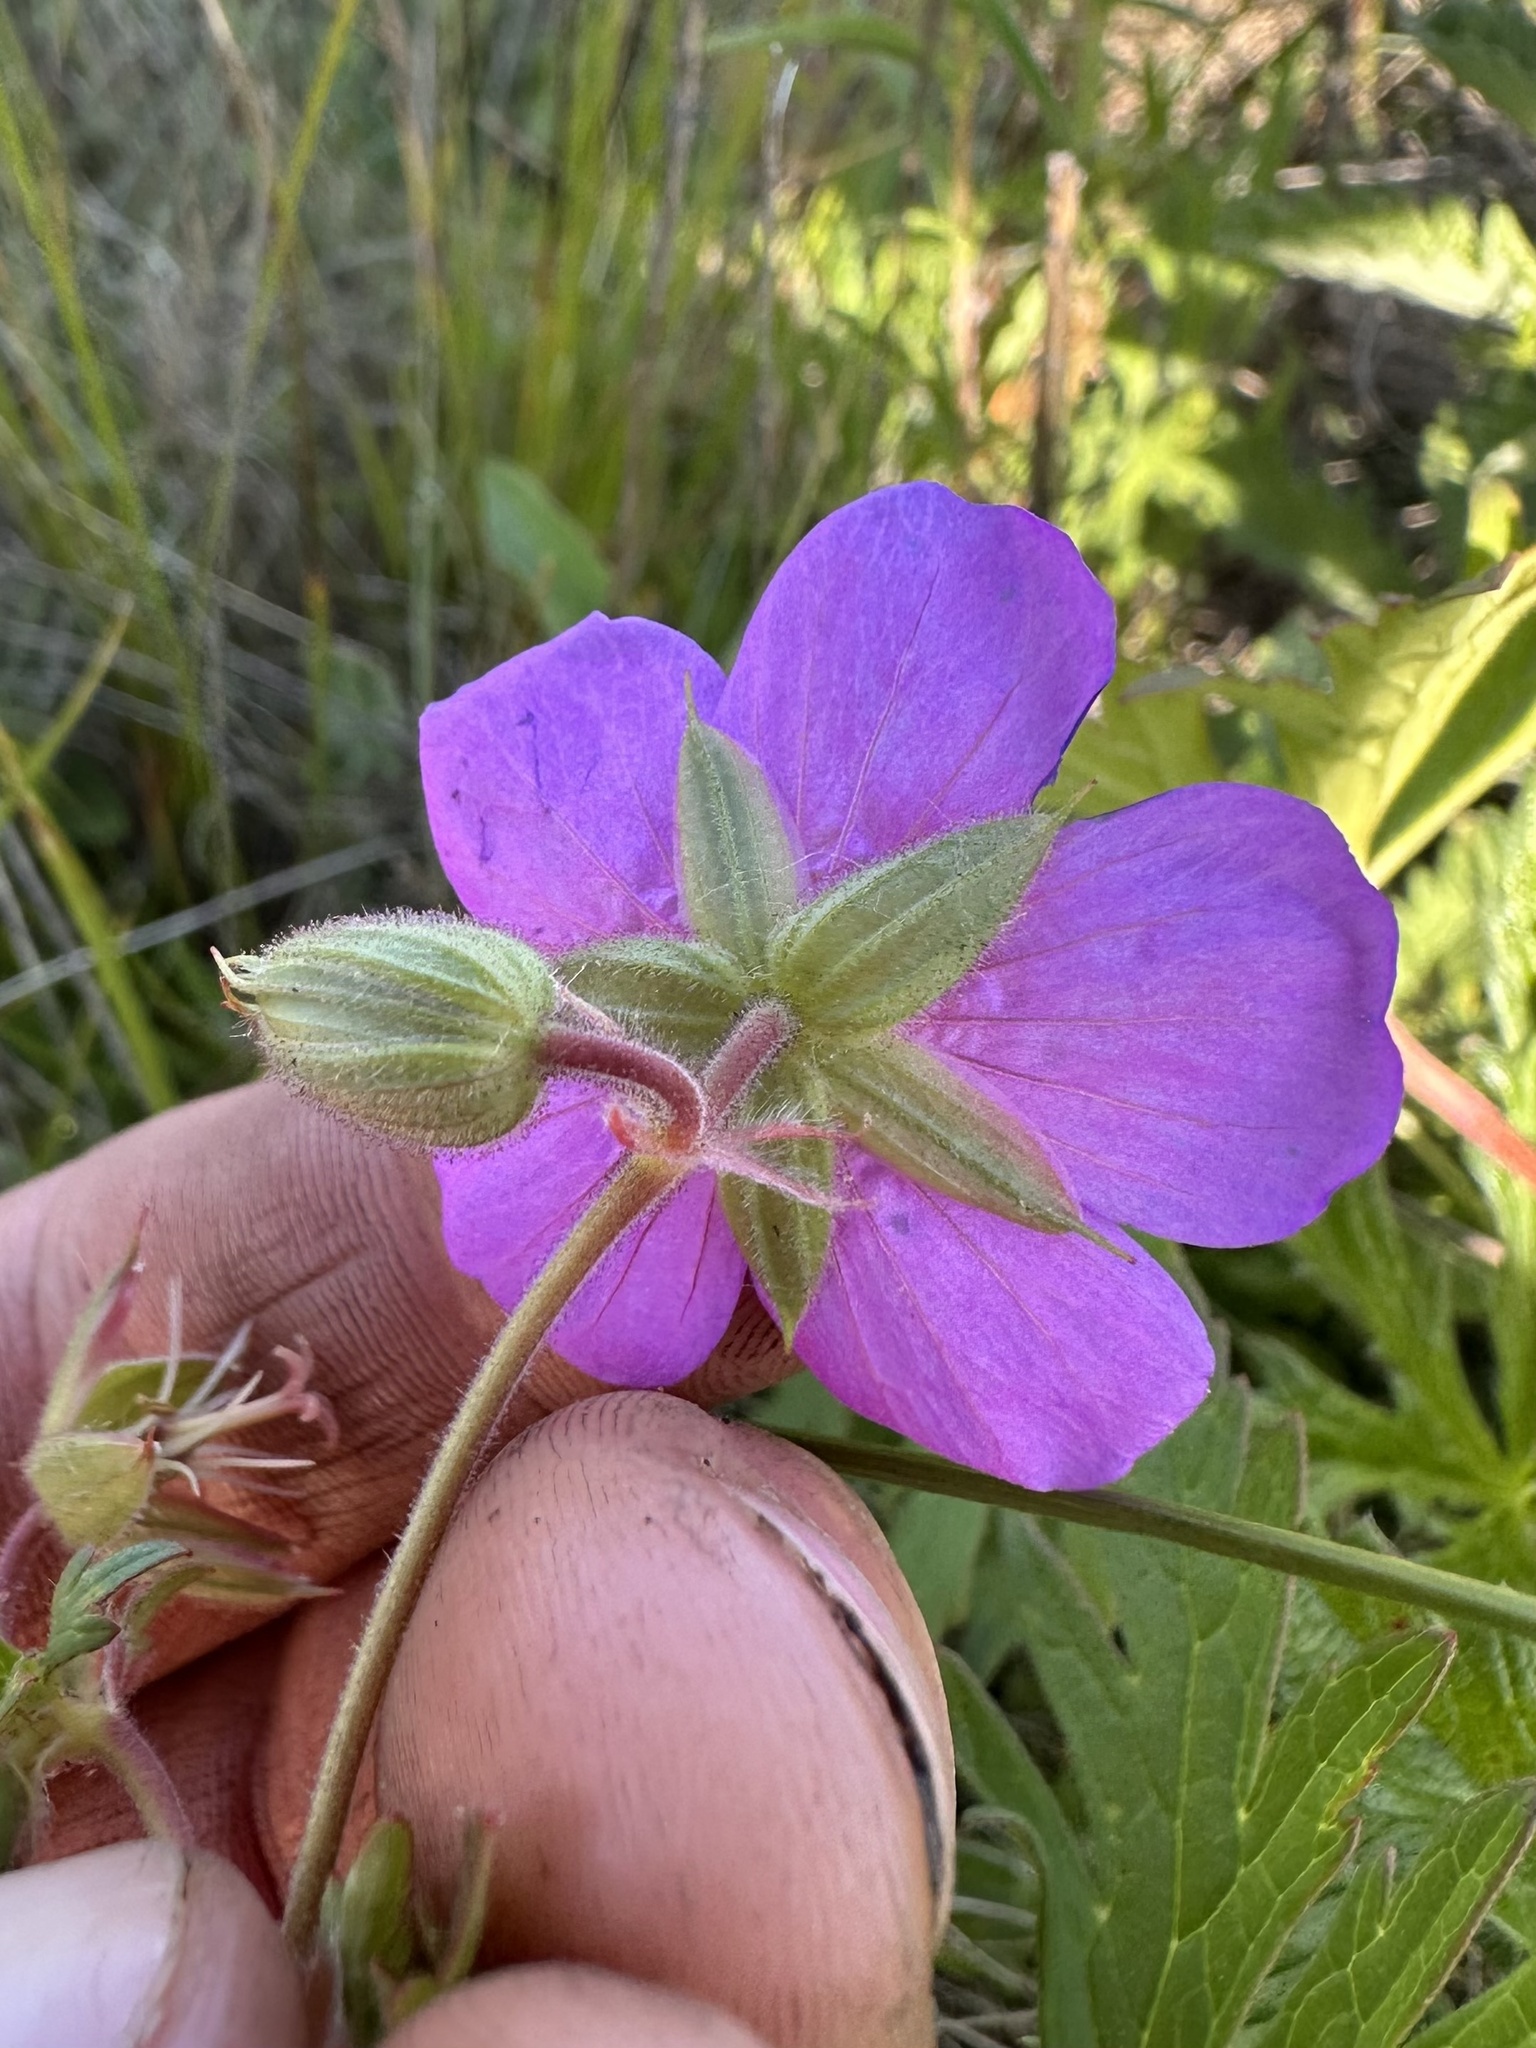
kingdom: Plantae
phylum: Tracheophyta
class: Magnoliopsida
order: Geraniales
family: Geraniaceae
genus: Geranium
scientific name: Geranium oreganum
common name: Oregon crane's-bill
